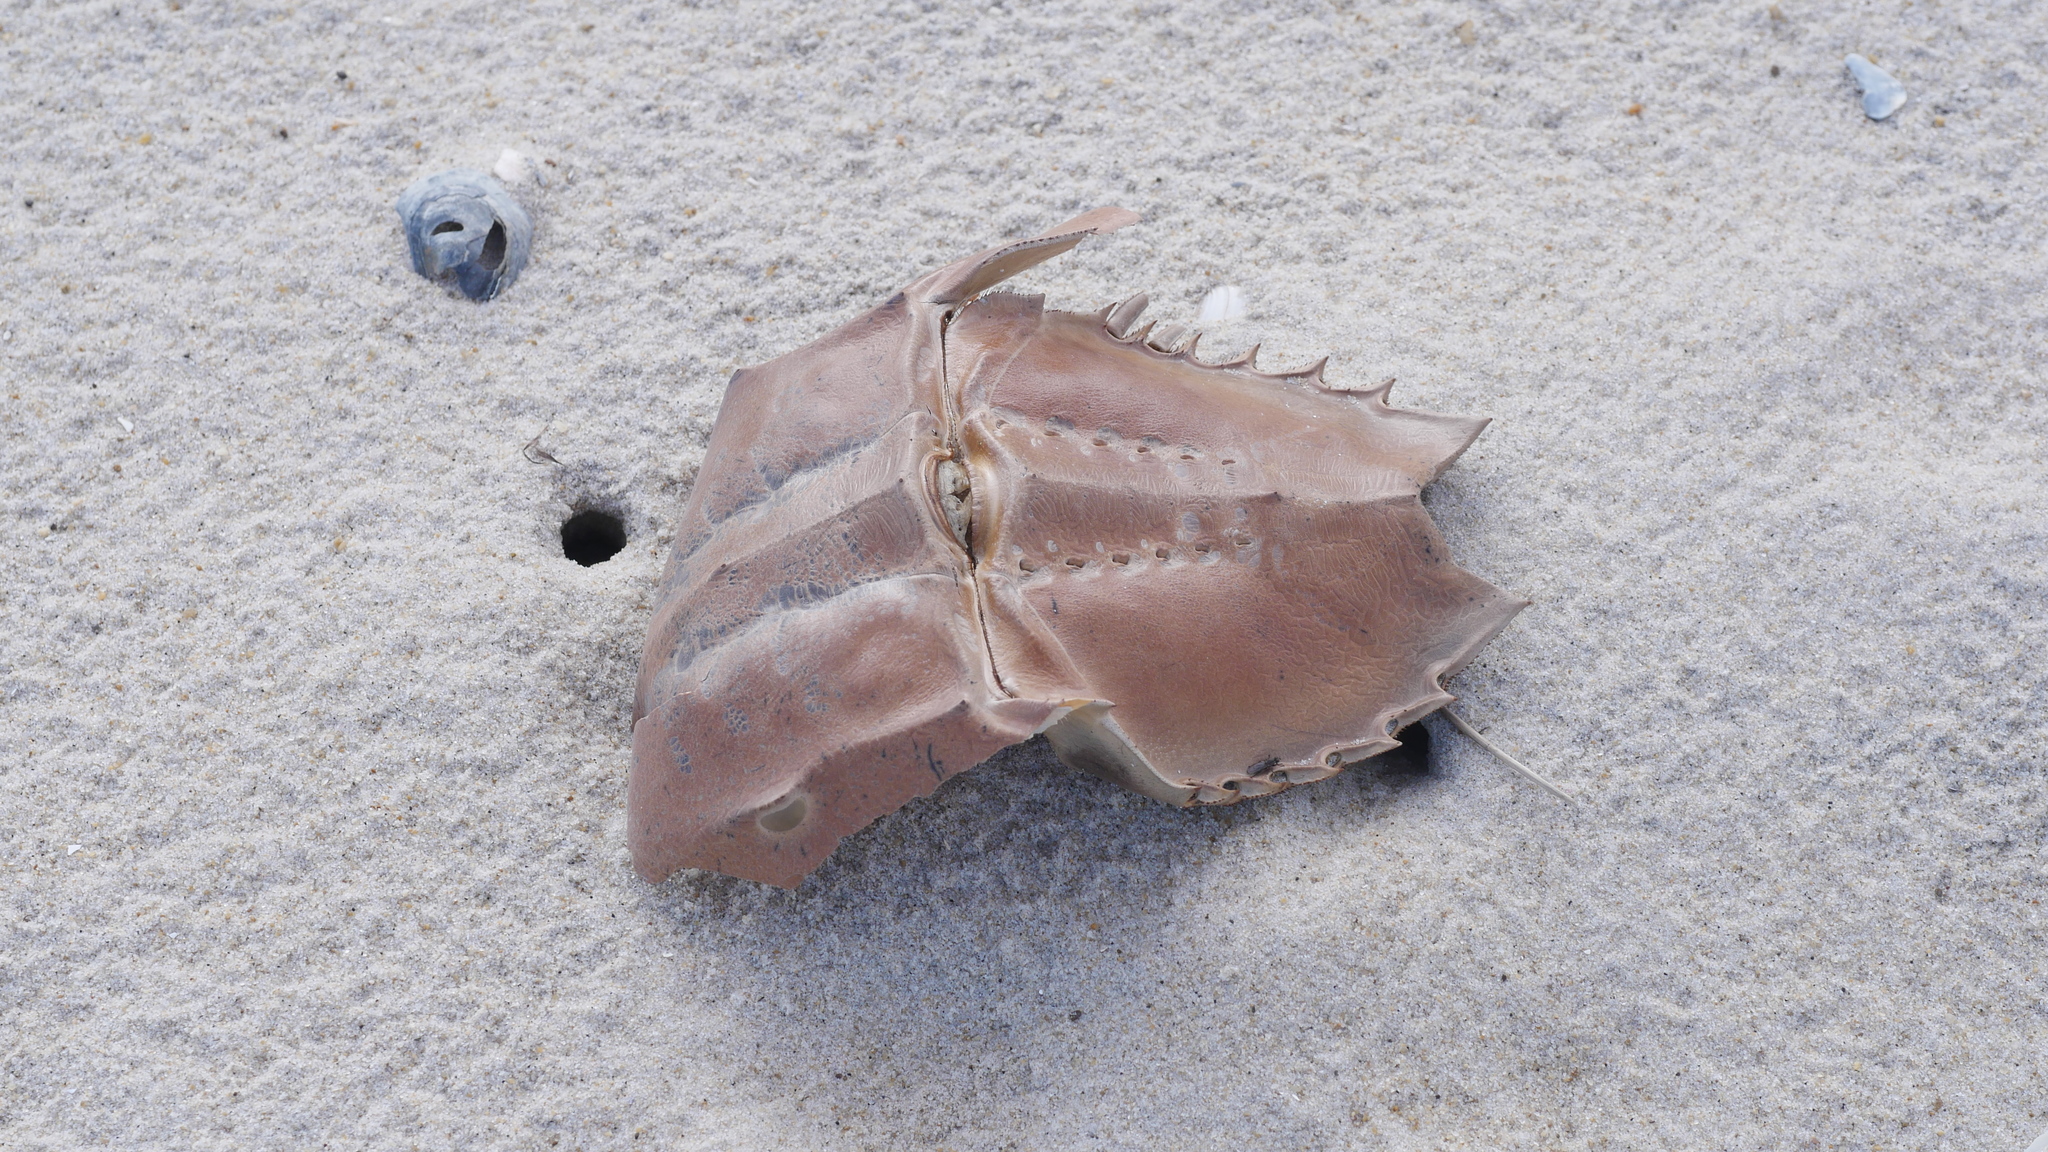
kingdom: Animalia
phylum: Arthropoda
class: Merostomata
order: Xiphosurida
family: Limulidae
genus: Limulus
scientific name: Limulus polyphemus
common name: Horseshoe crab
